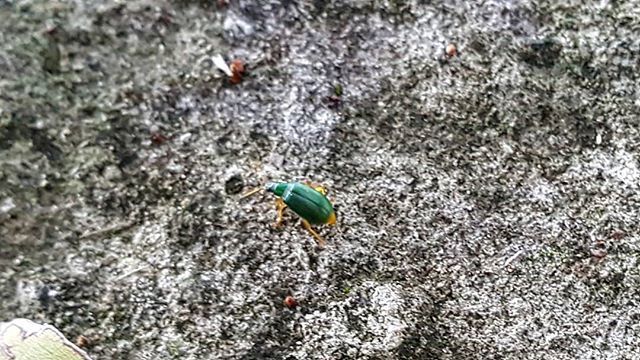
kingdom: Animalia
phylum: Arthropoda
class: Insecta
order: Coleoptera
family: Chrysomelidae
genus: Diabrotica
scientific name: Diabrotica
